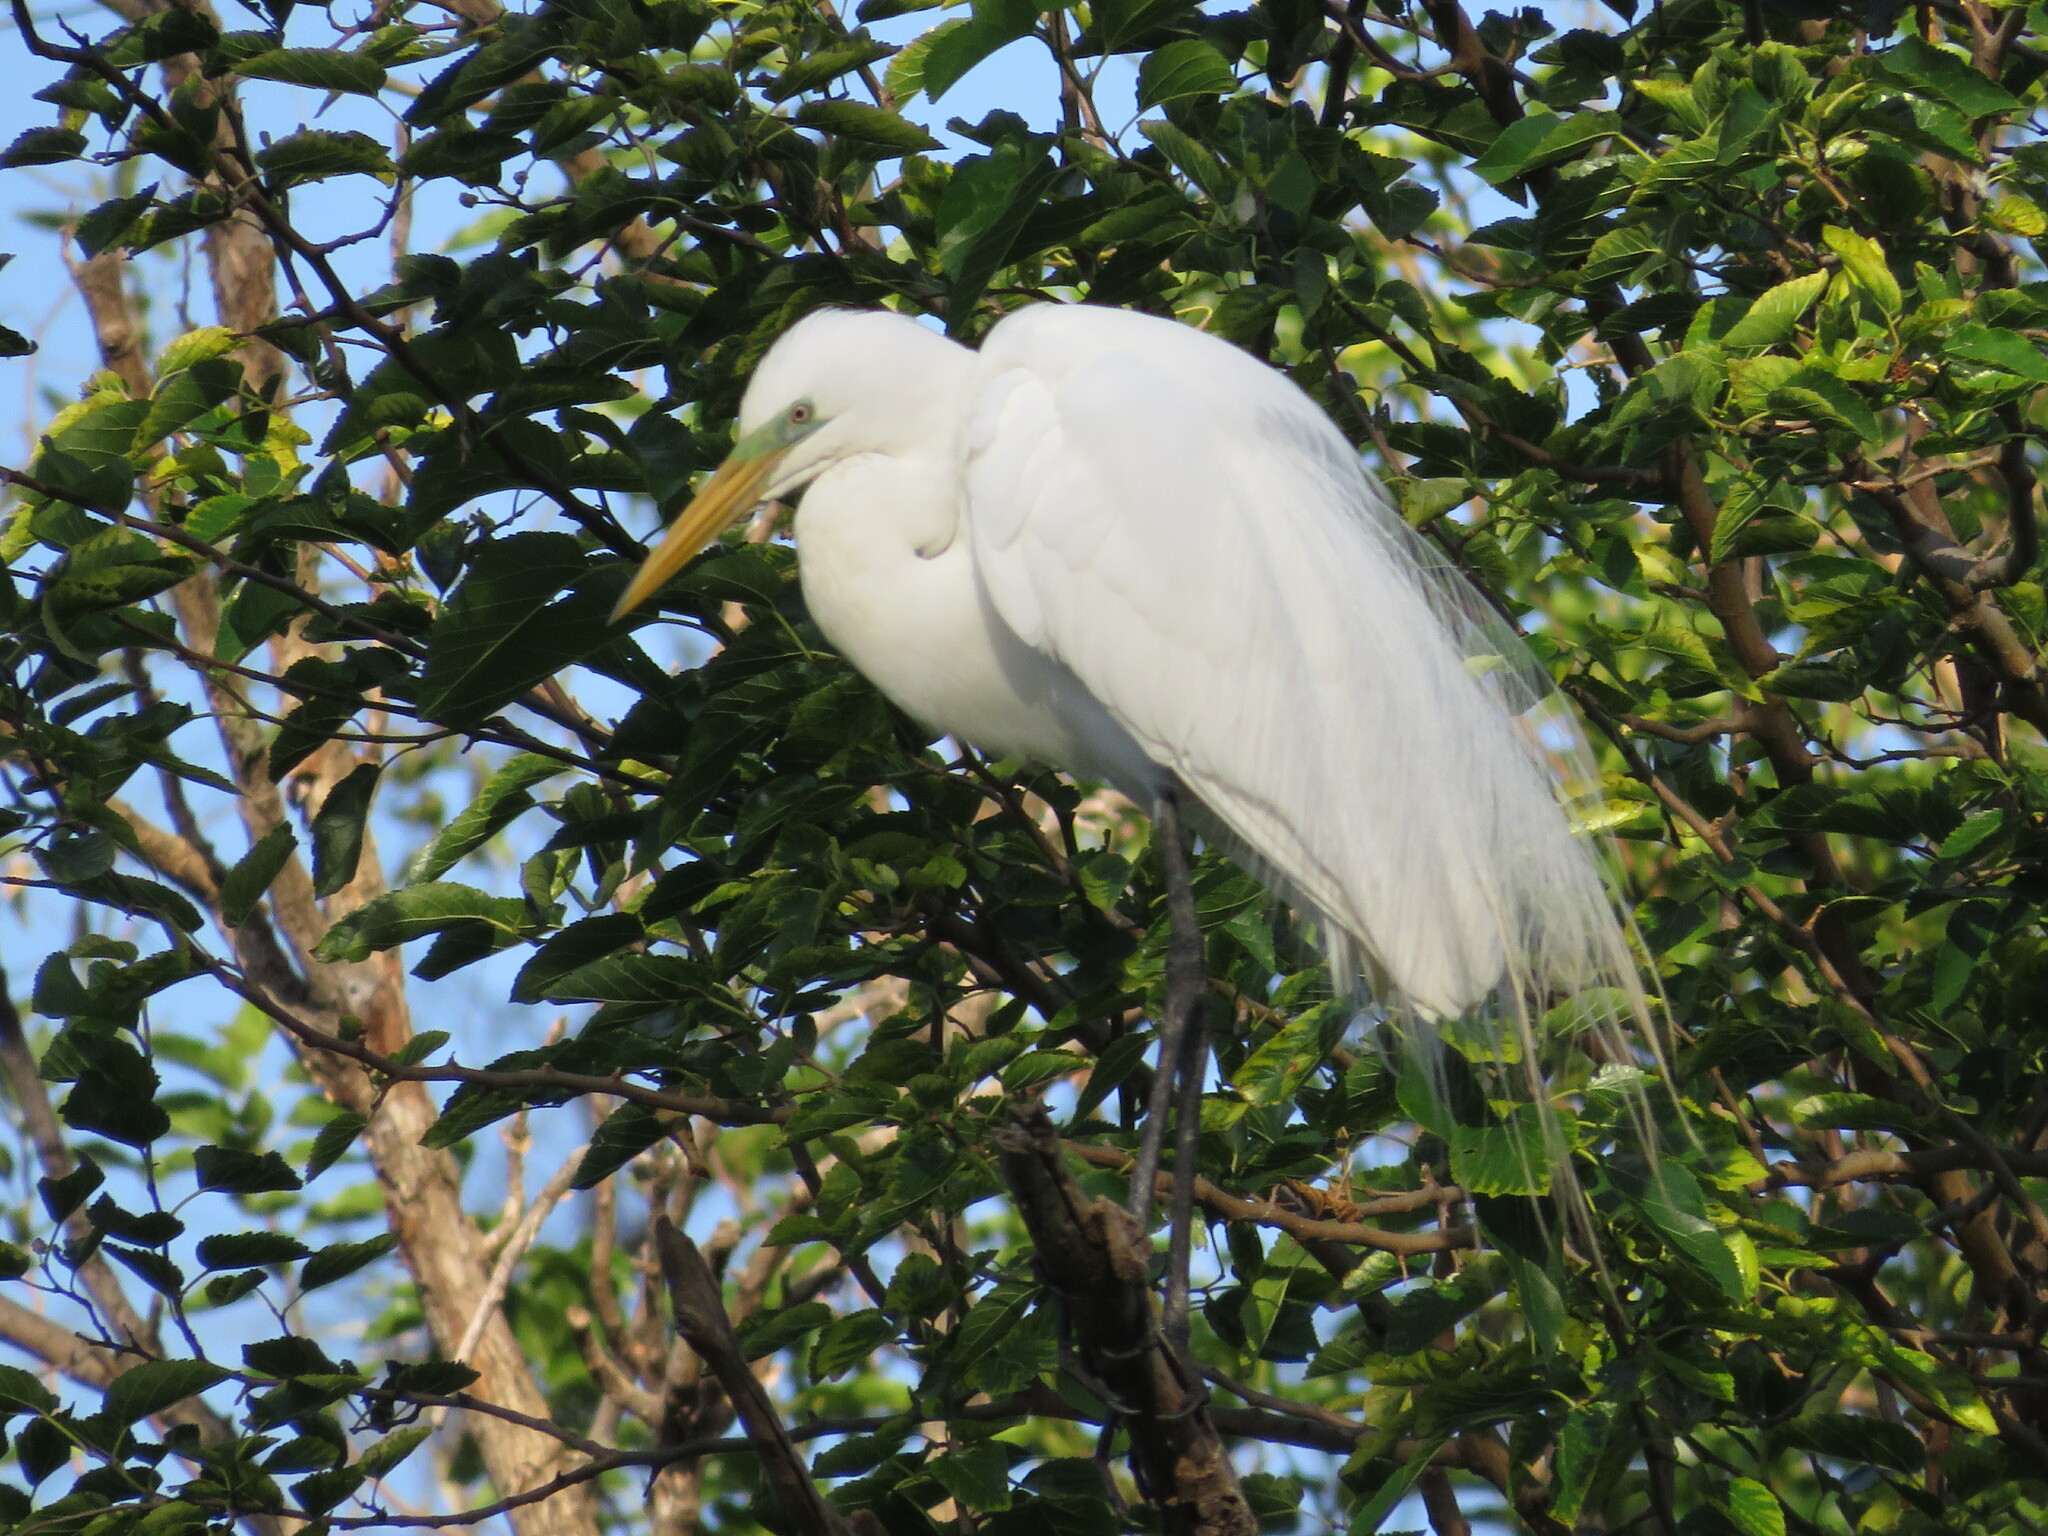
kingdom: Animalia
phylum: Chordata
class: Aves
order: Pelecaniformes
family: Ardeidae
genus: Ardea
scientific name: Ardea alba
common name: Great egret
